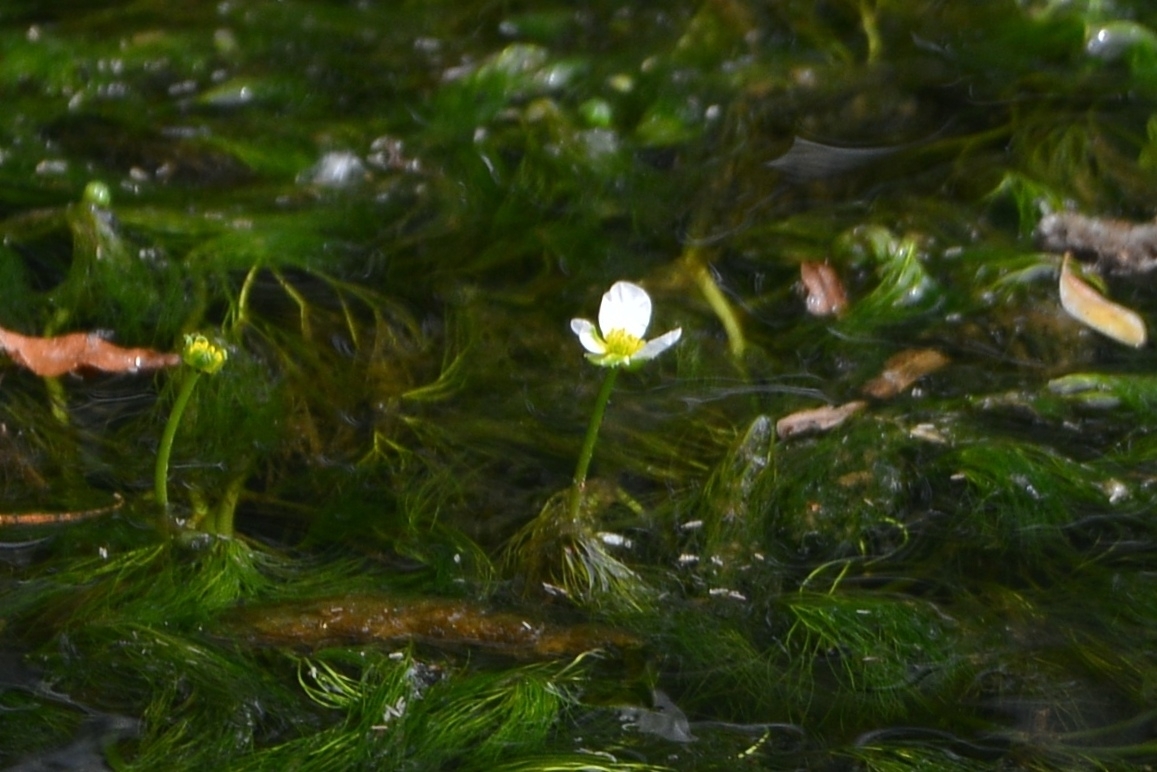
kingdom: Plantae
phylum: Tracheophyta
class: Magnoliopsida
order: Ranunculales
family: Ranunculaceae
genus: Ranunculus
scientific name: Ranunculus trichophyllus
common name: Thread-leaved water-crowfoot
